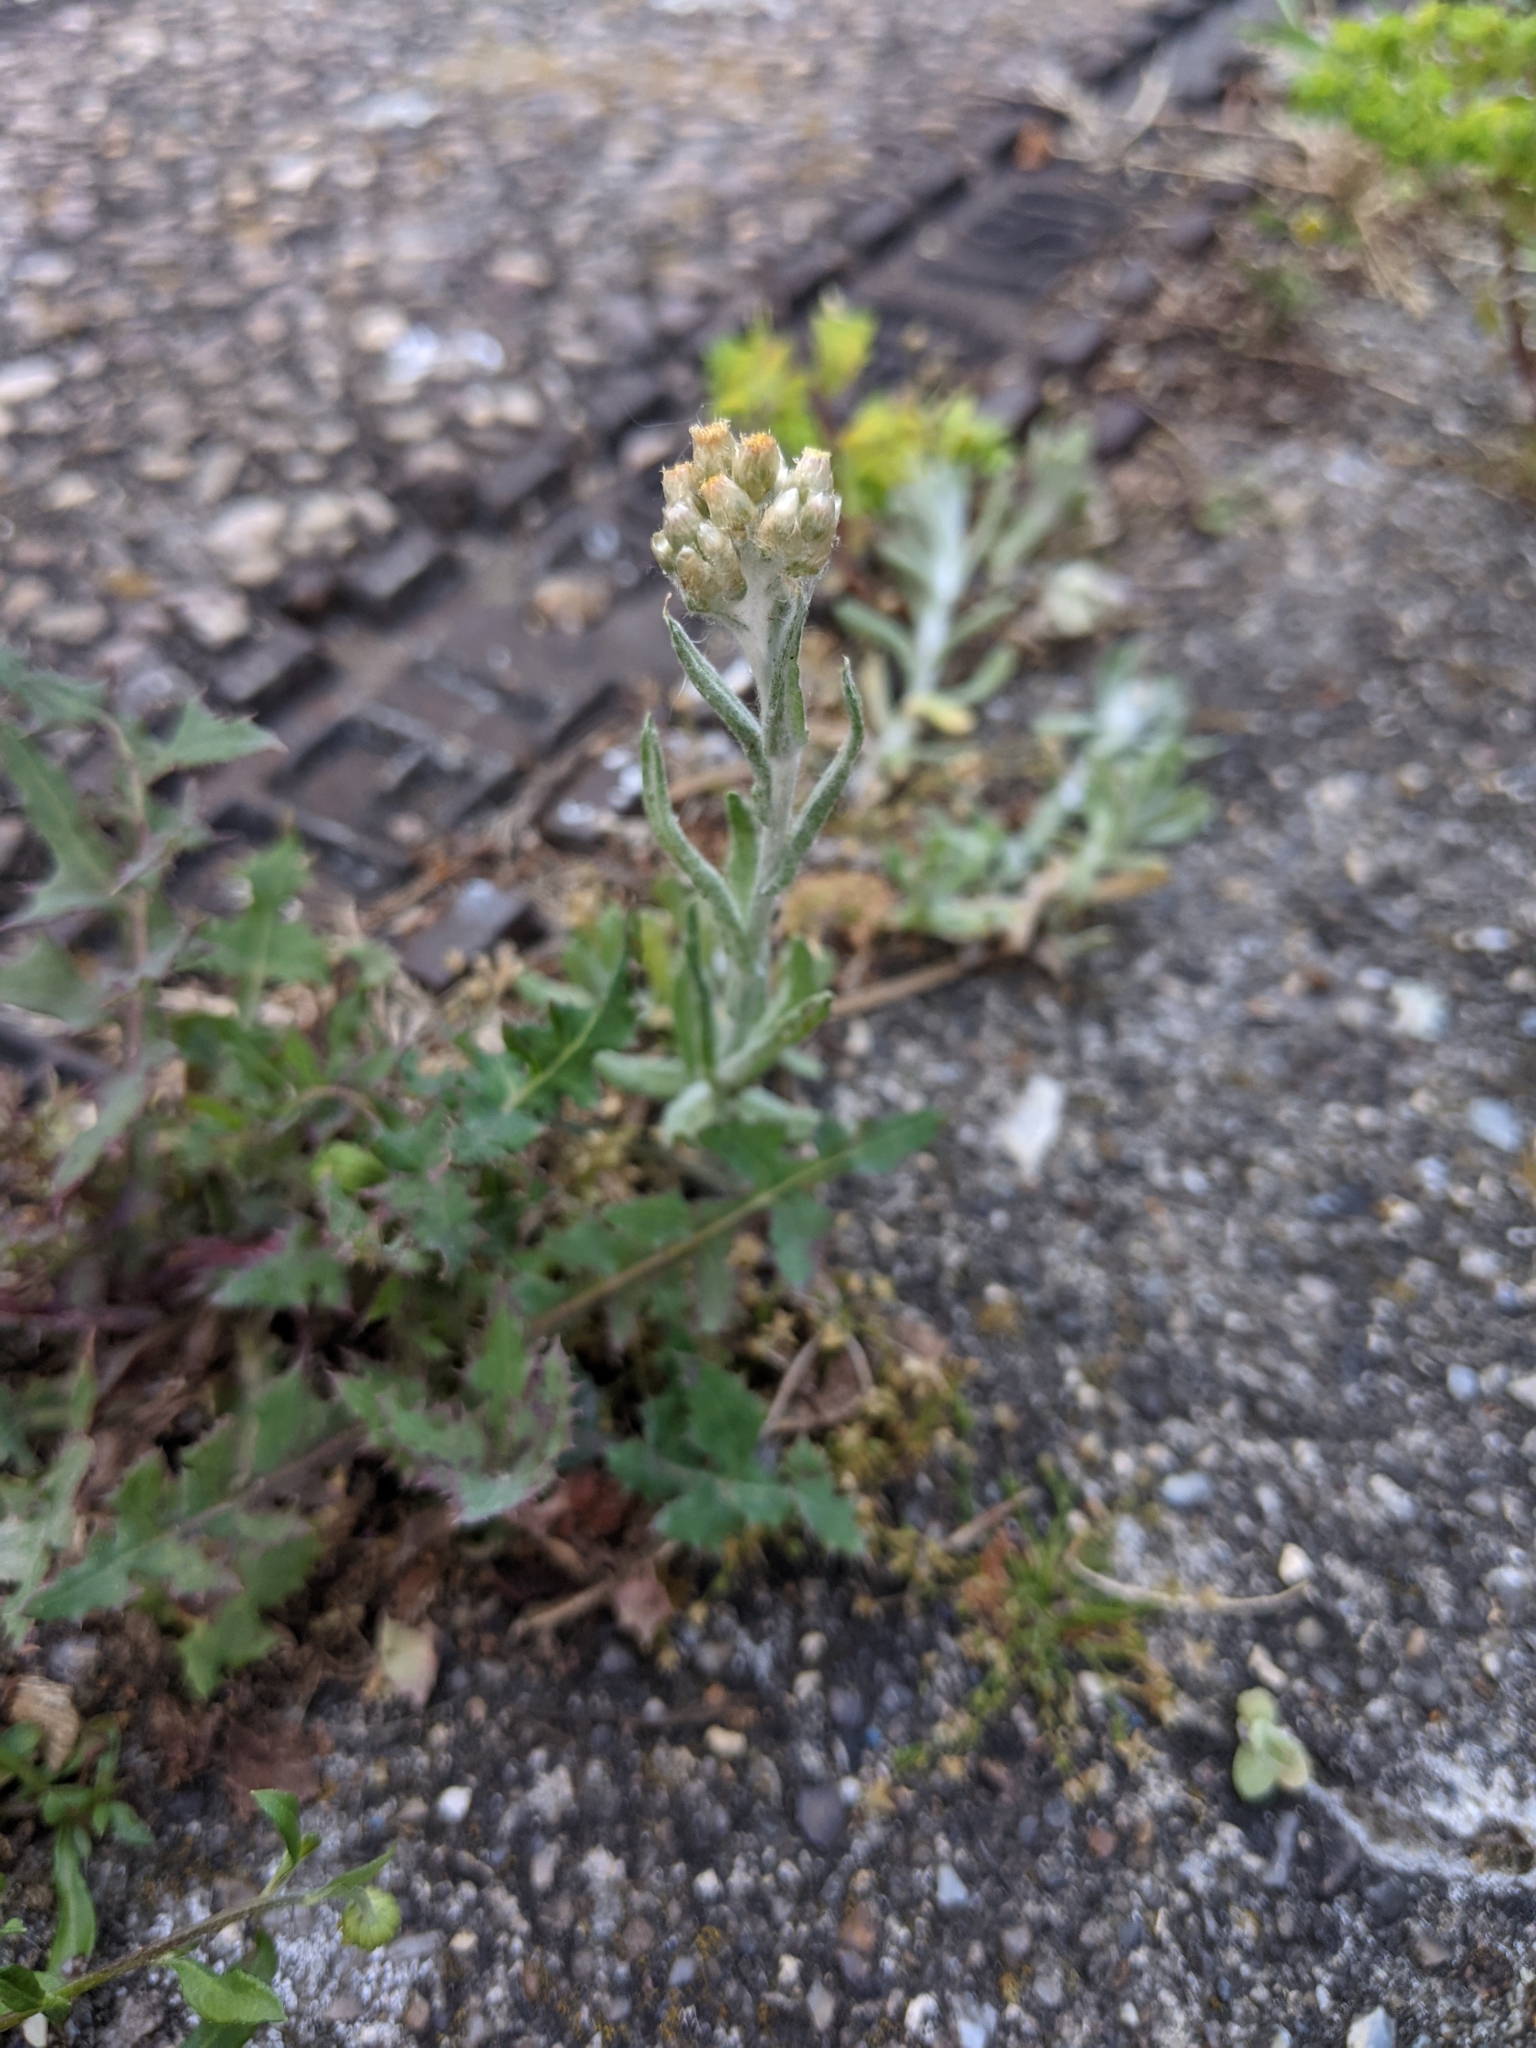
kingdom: Plantae
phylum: Tracheophyta
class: Magnoliopsida
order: Asterales
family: Asteraceae
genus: Helichrysum
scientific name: Helichrysum luteoalbum
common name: Daisy
